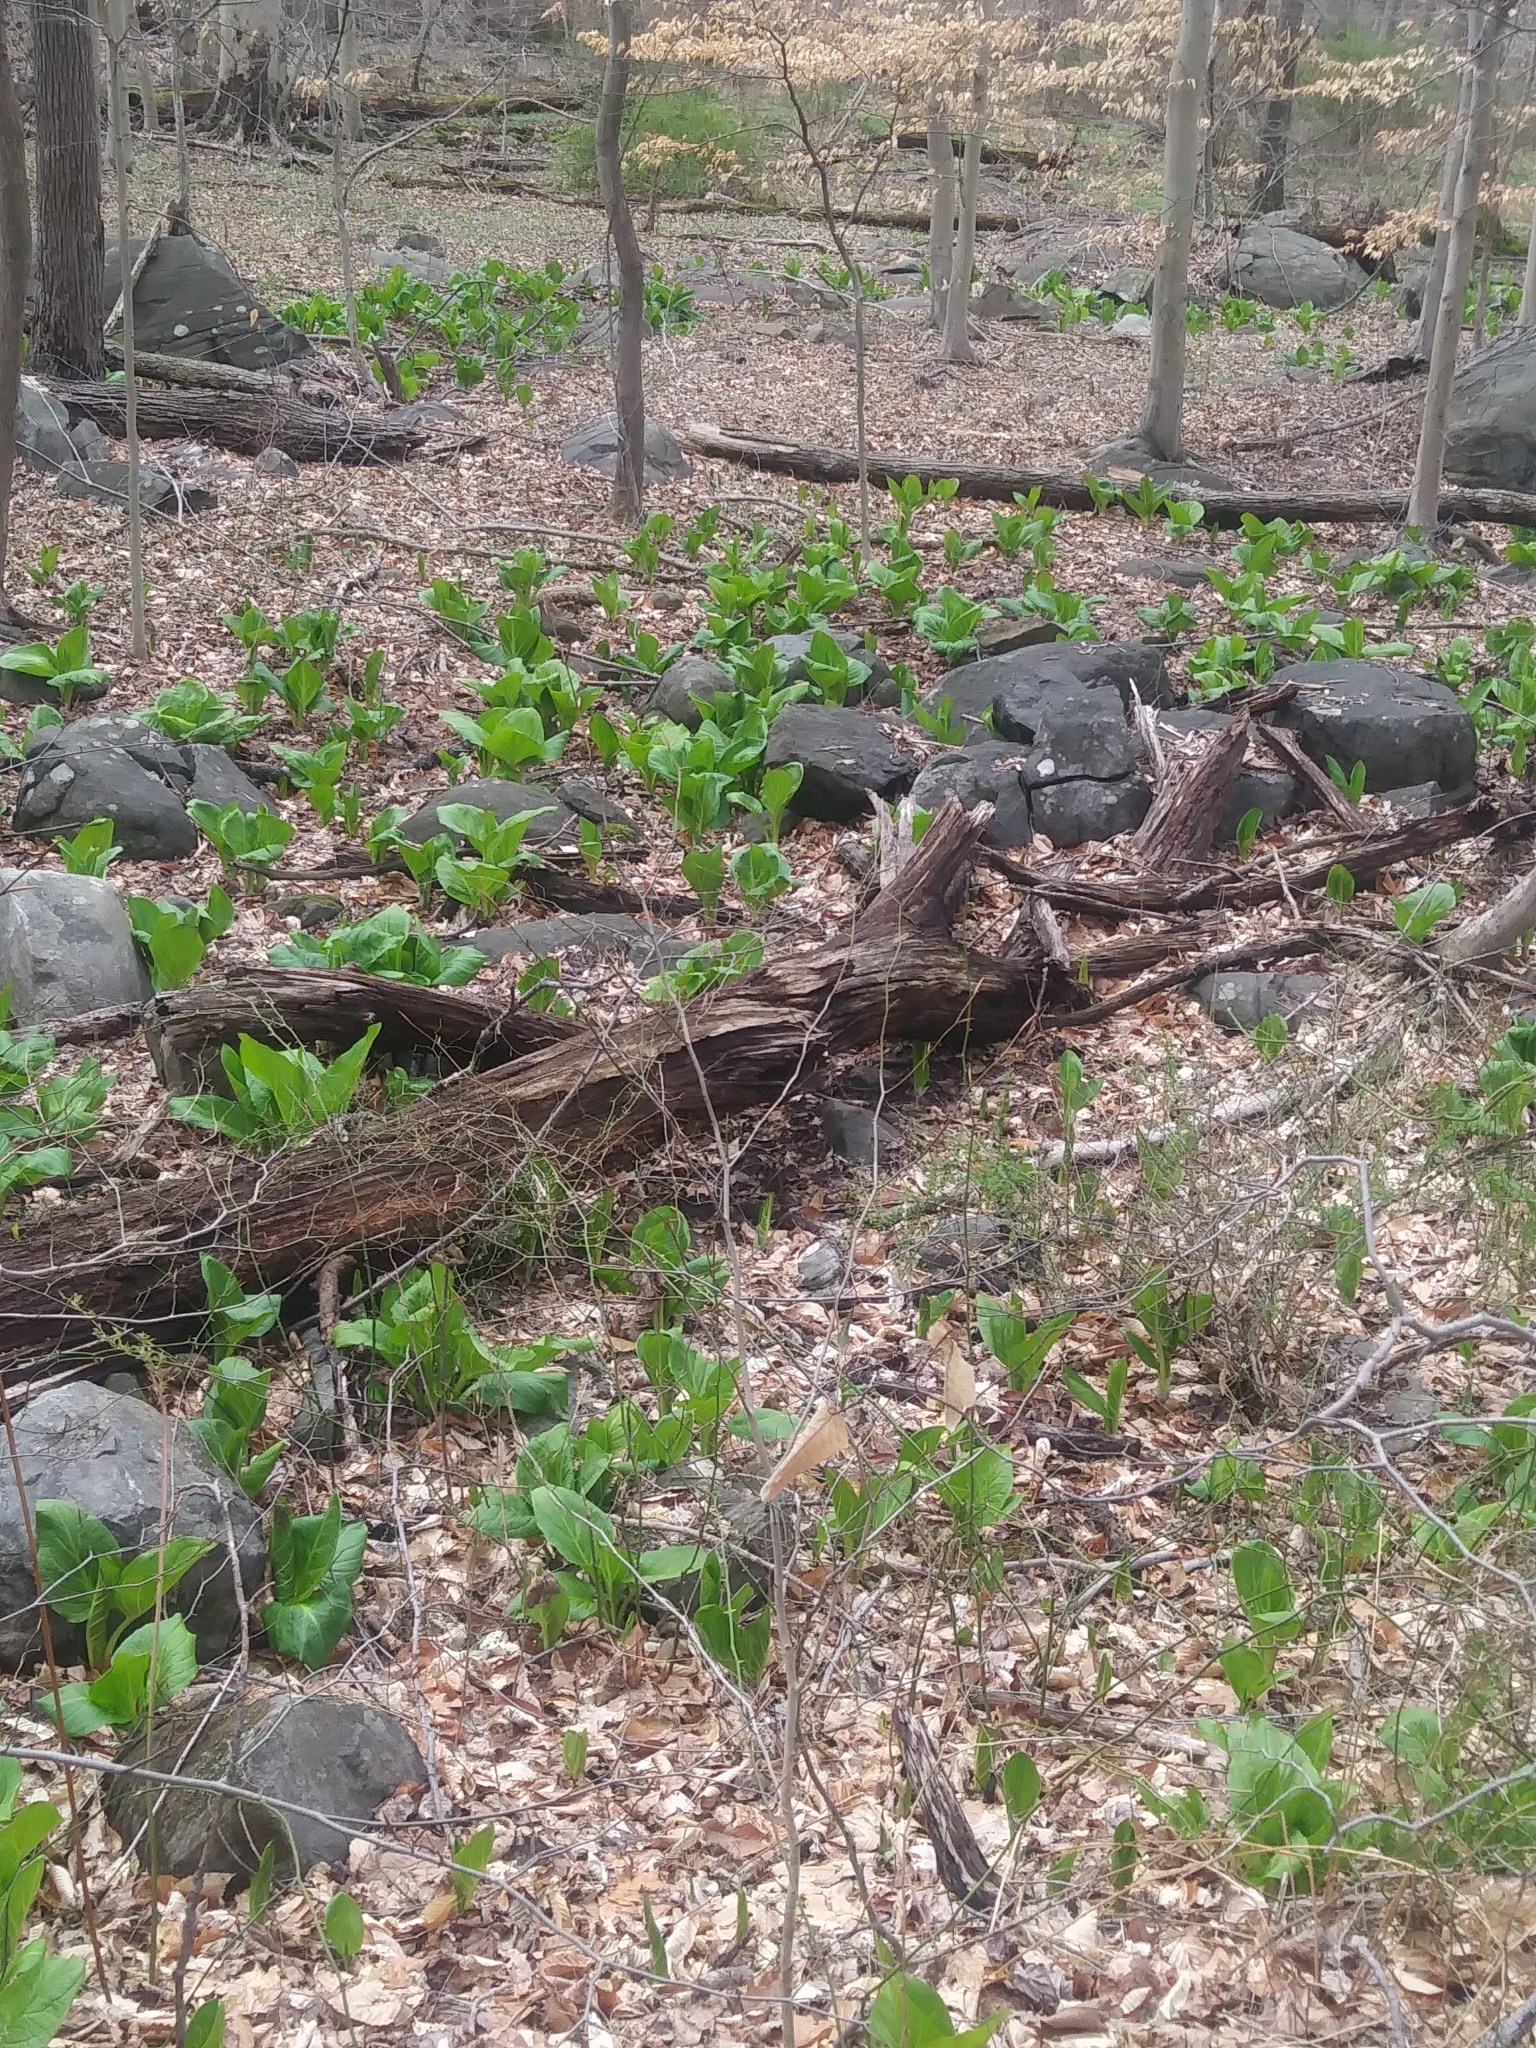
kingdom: Plantae
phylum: Tracheophyta
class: Liliopsida
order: Alismatales
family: Araceae
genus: Symplocarpus
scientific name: Symplocarpus foetidus
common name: Eastern skunk cabbage
